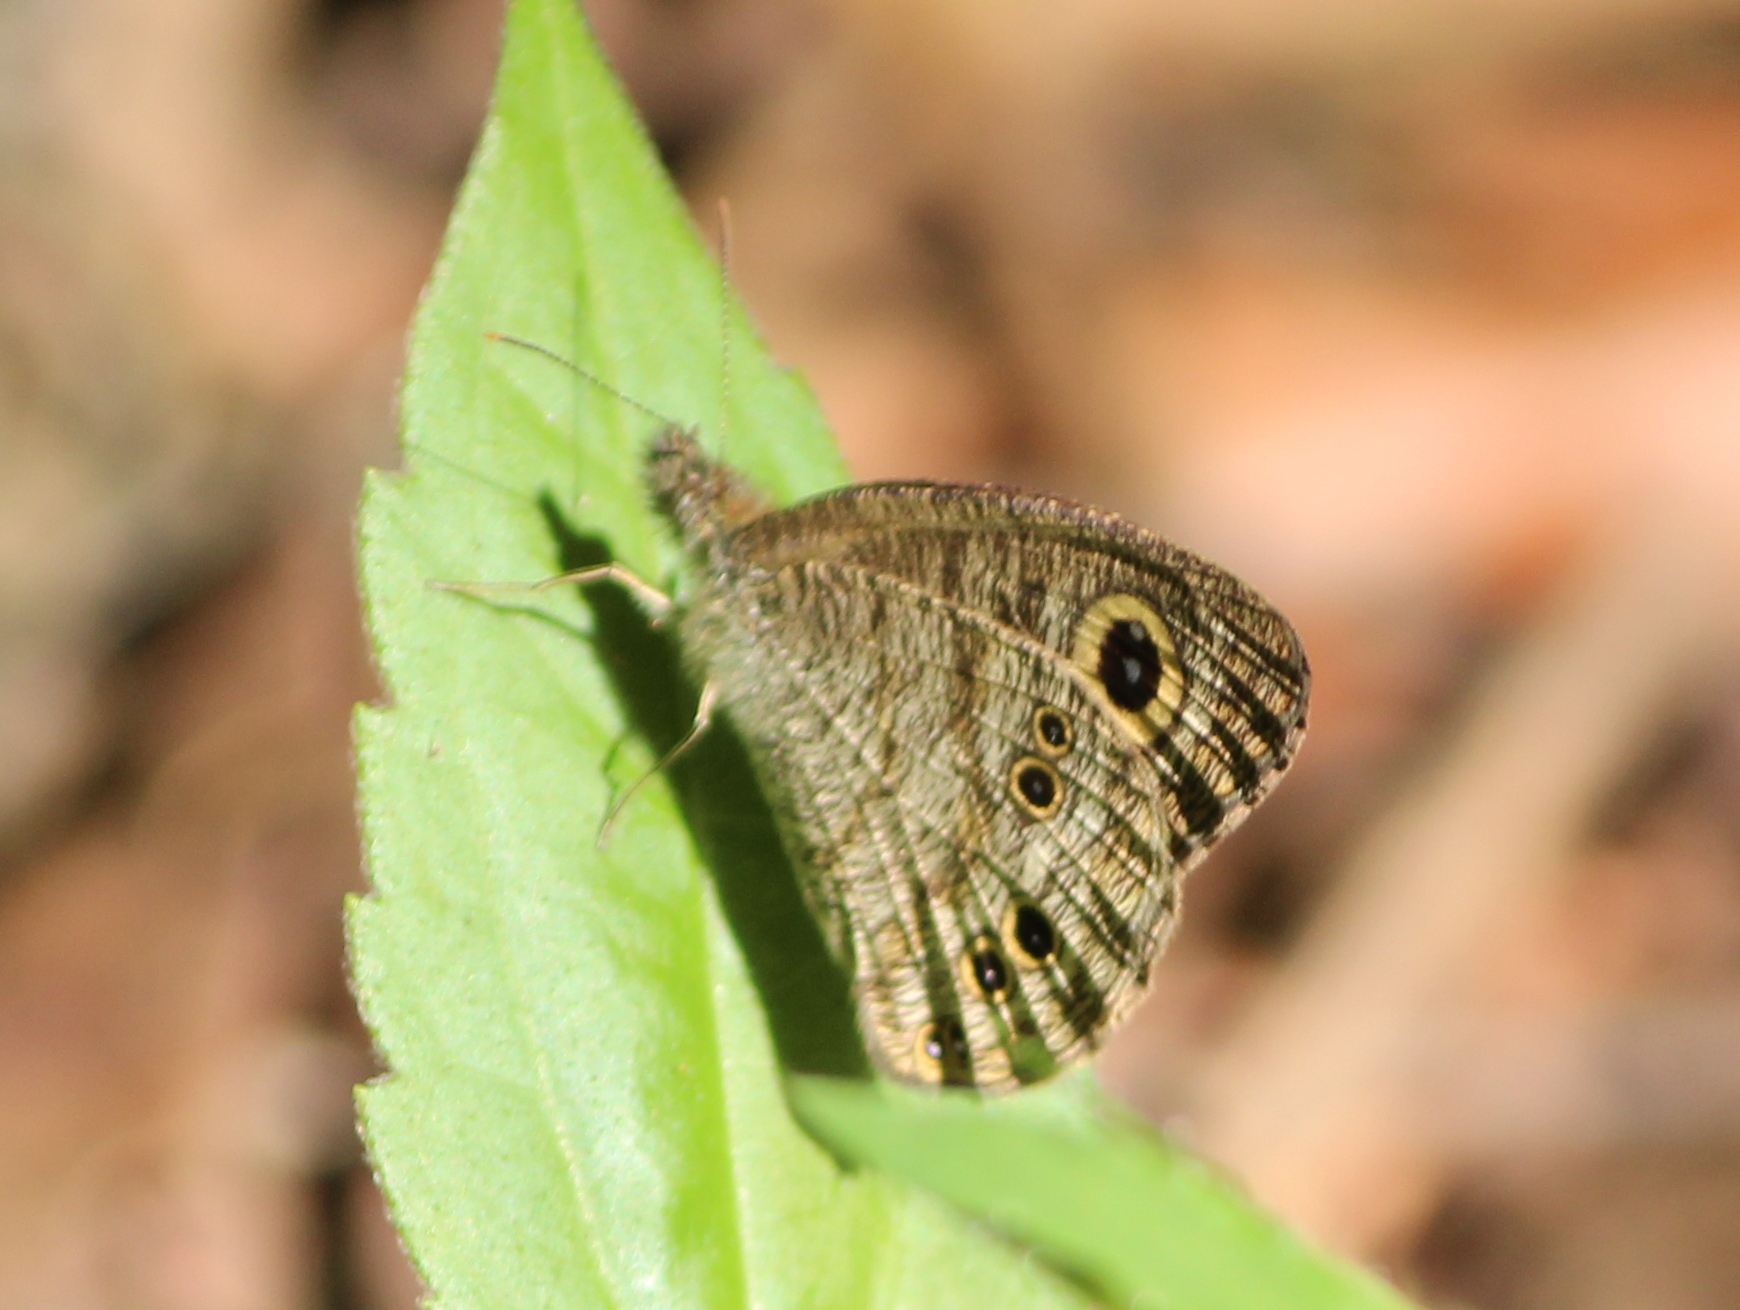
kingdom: Animalia
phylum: Arthropoda
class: Insecta
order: Lepidoptera
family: Nymphalidae
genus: Ypthima
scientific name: Ypthima baldus
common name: Common five-ring
